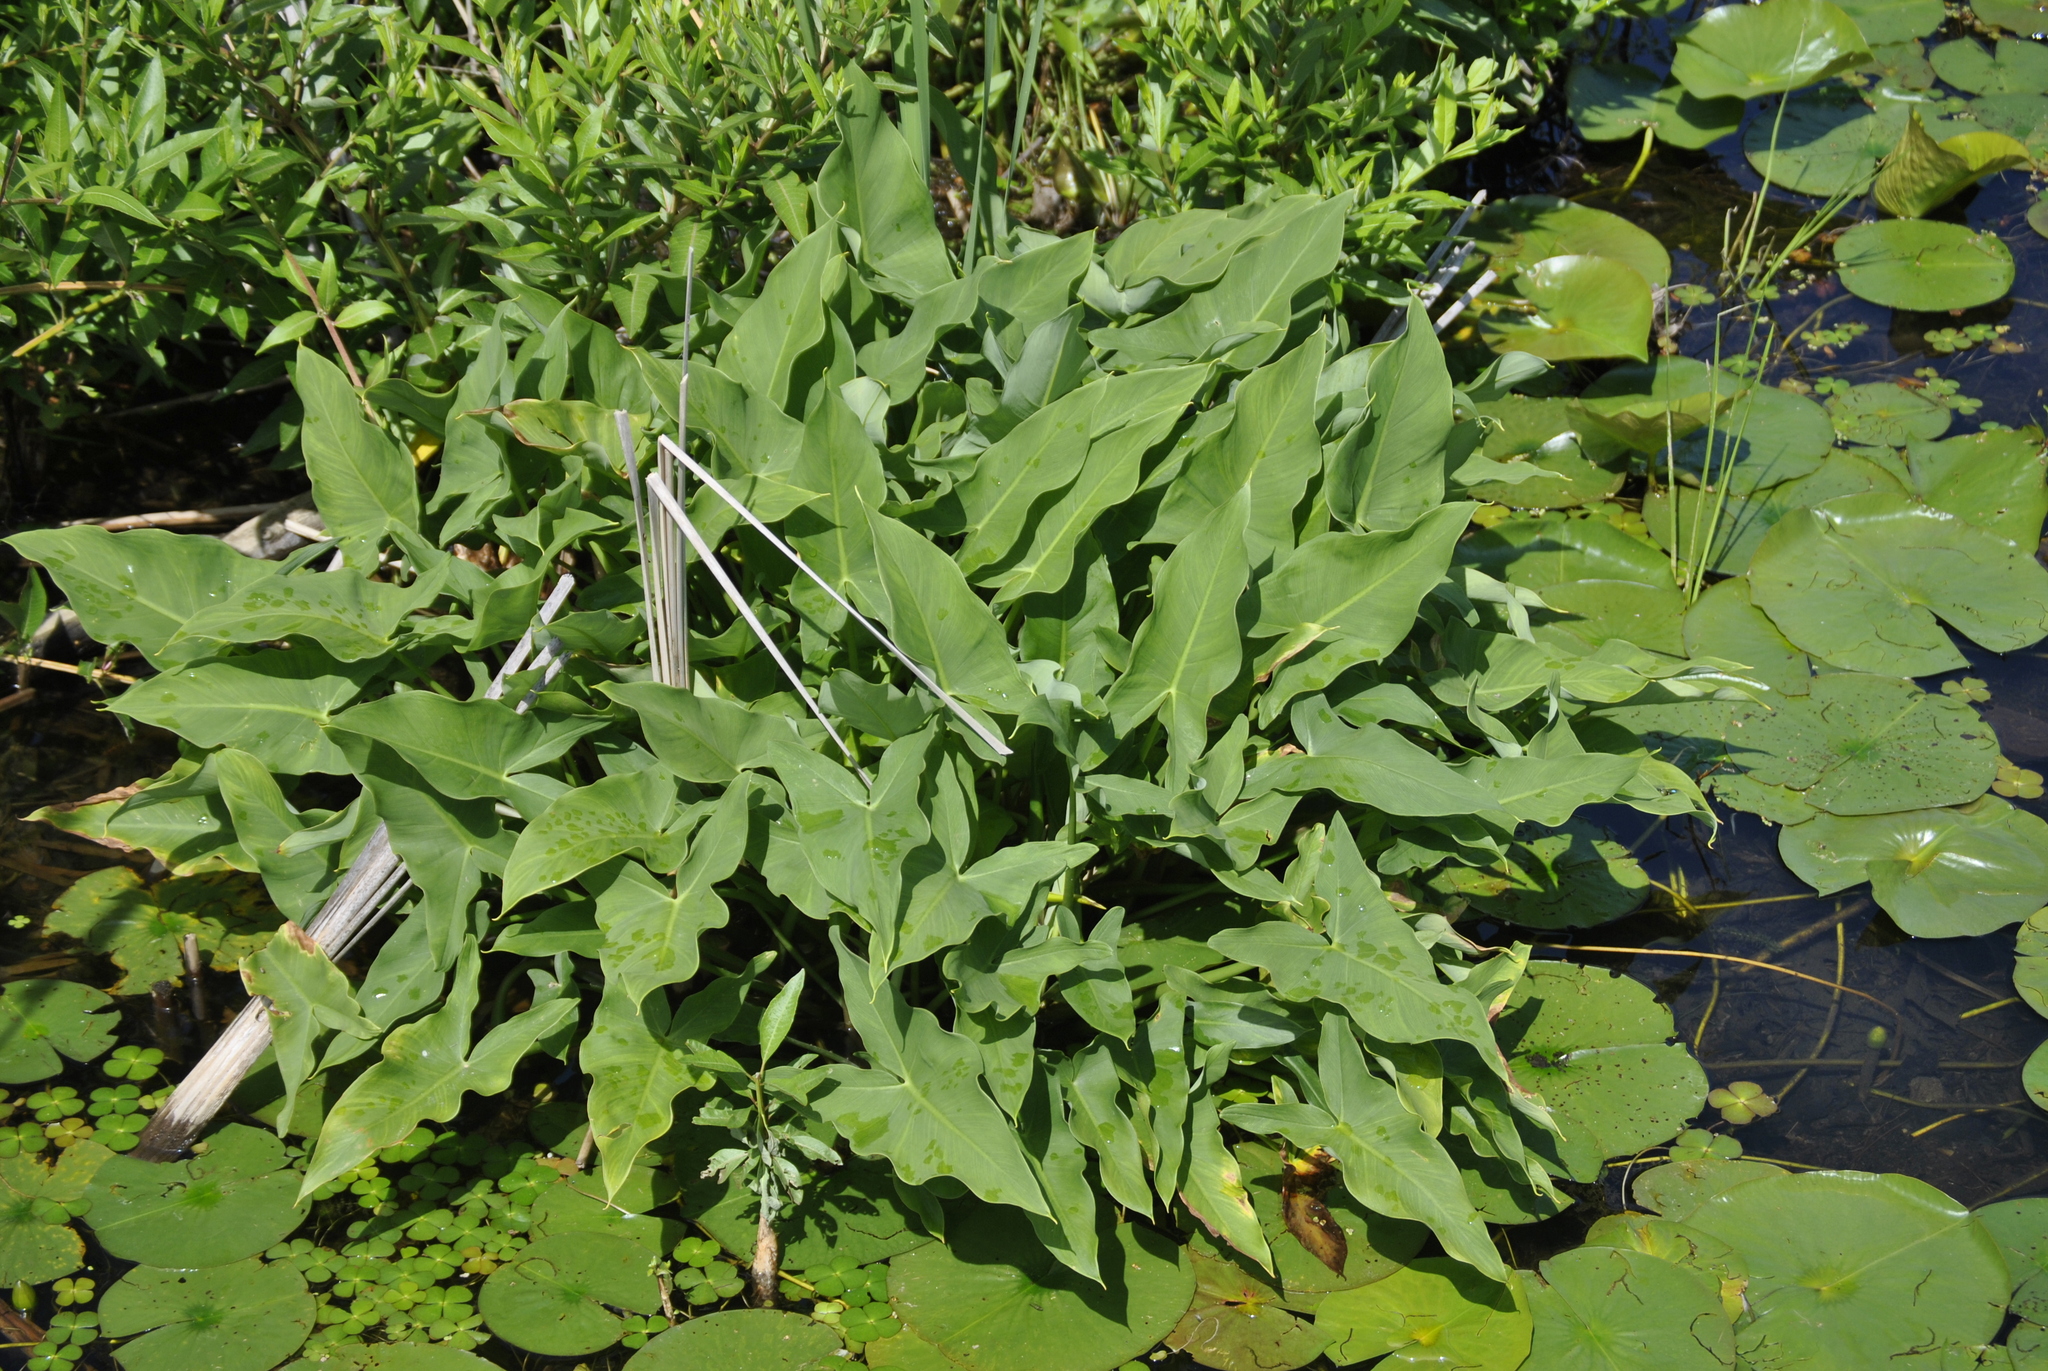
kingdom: Plantae
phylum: Tracheophyta
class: Liliopsida
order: Alismatales
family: Araceae
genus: Peltandra
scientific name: Peltandra virginica
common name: Arrow arum
